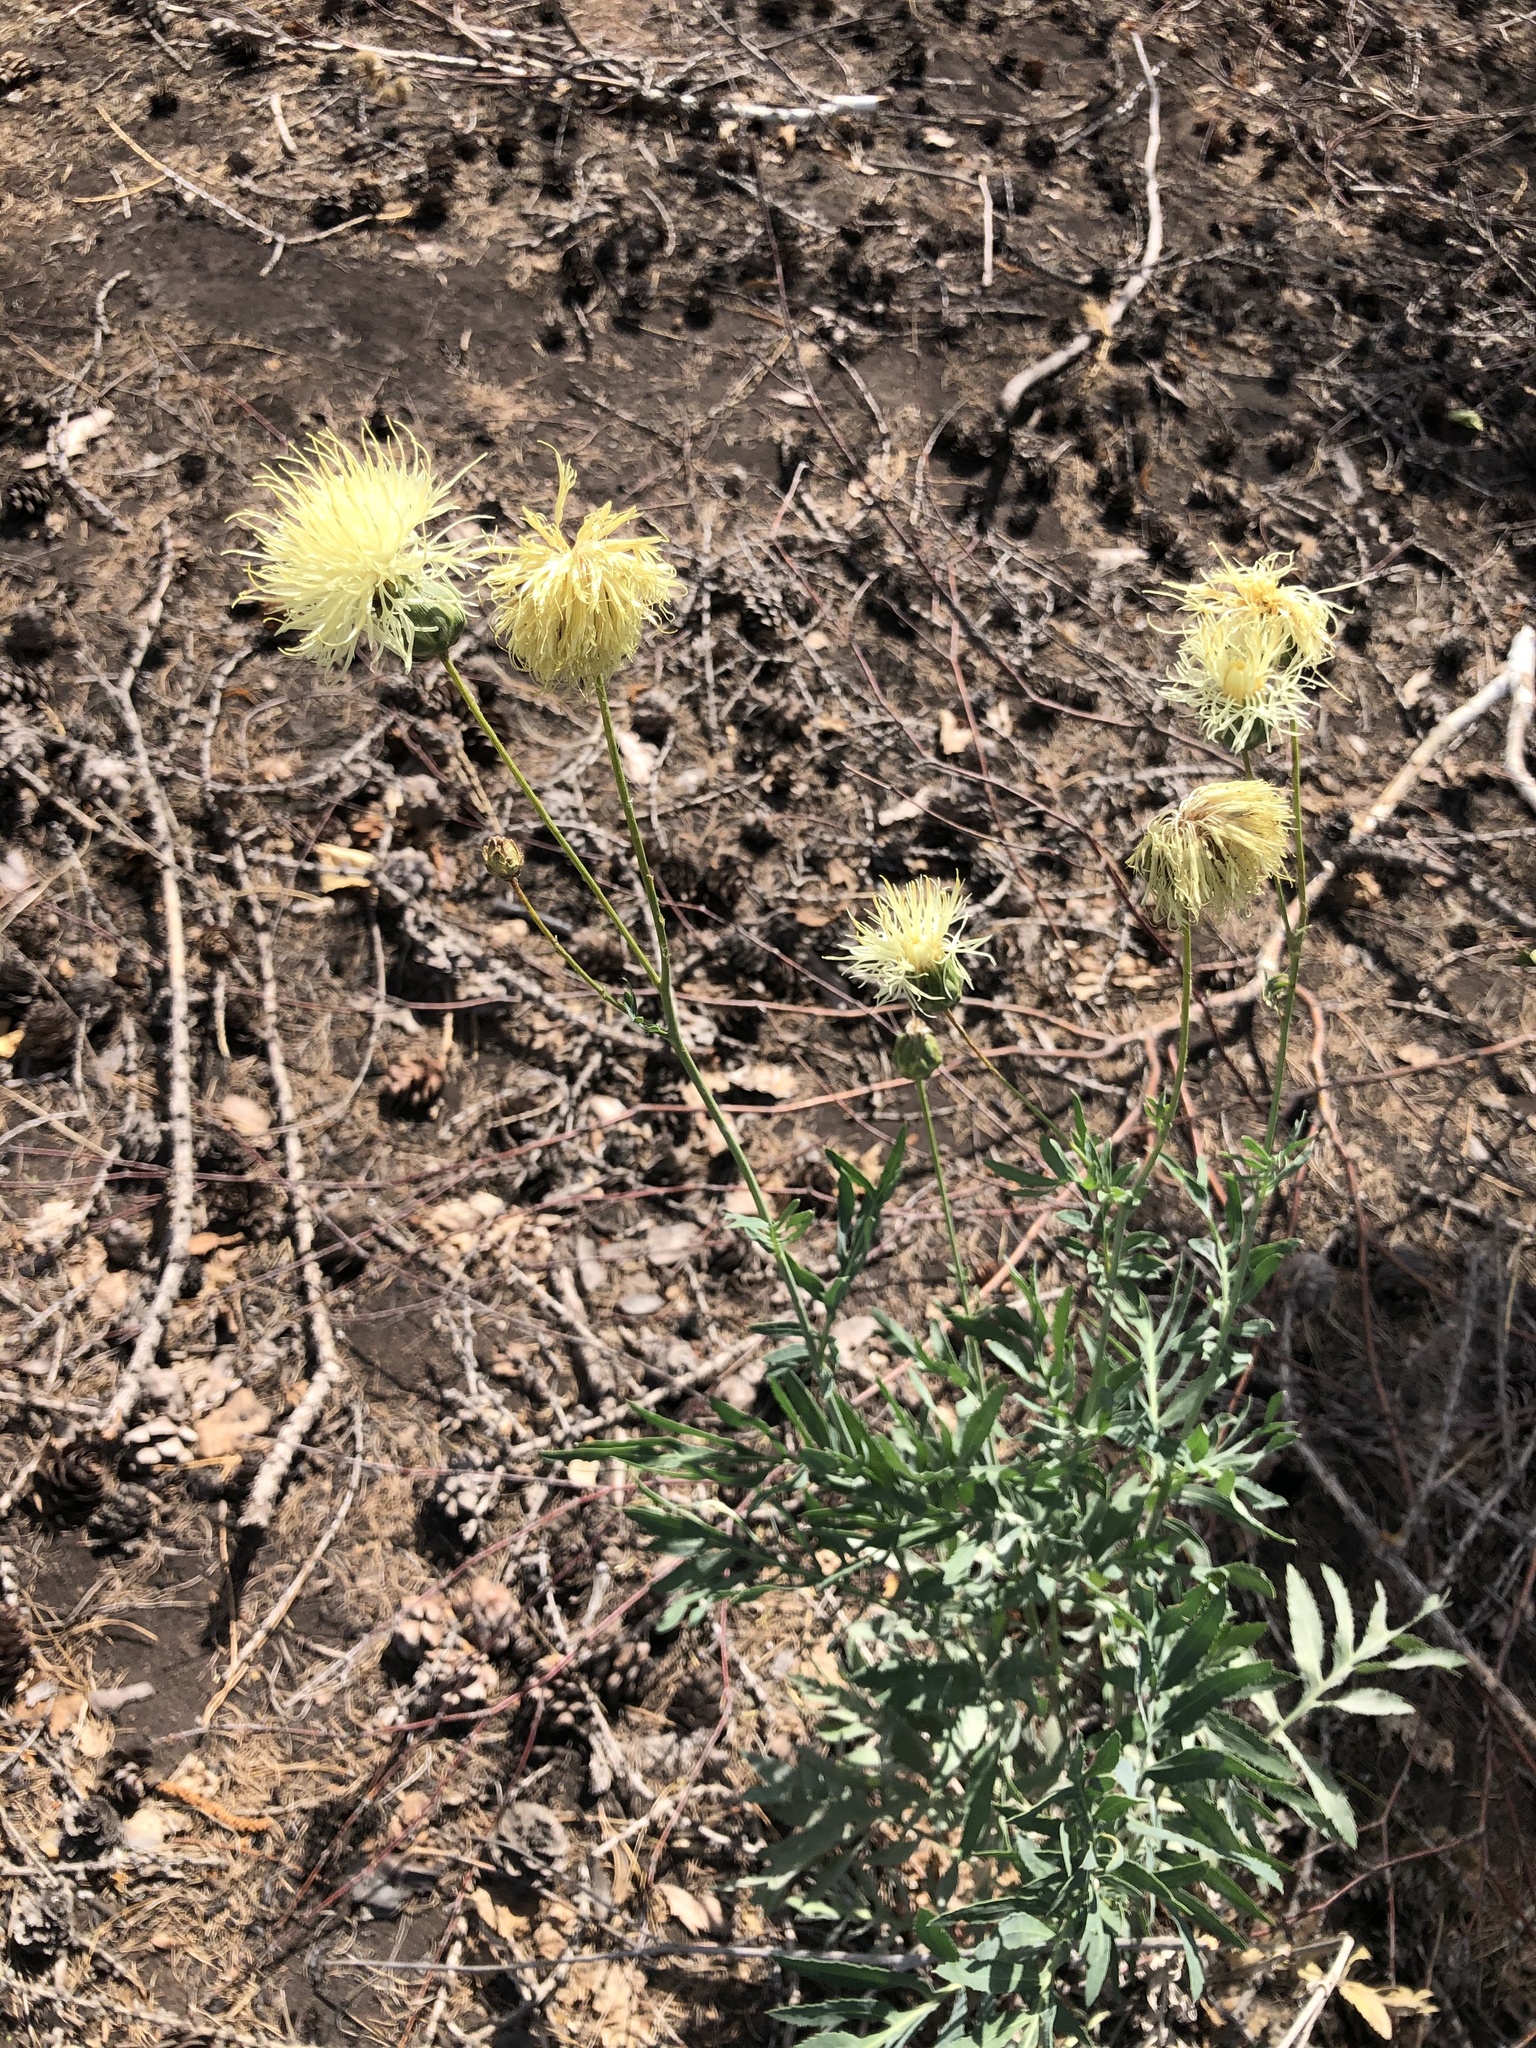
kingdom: Plantae
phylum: Tracheophyta
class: Magnoliopsida
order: Asterales
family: Asteraceae
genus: Rhaponticoides
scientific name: Rhaponticoides ruthenica
